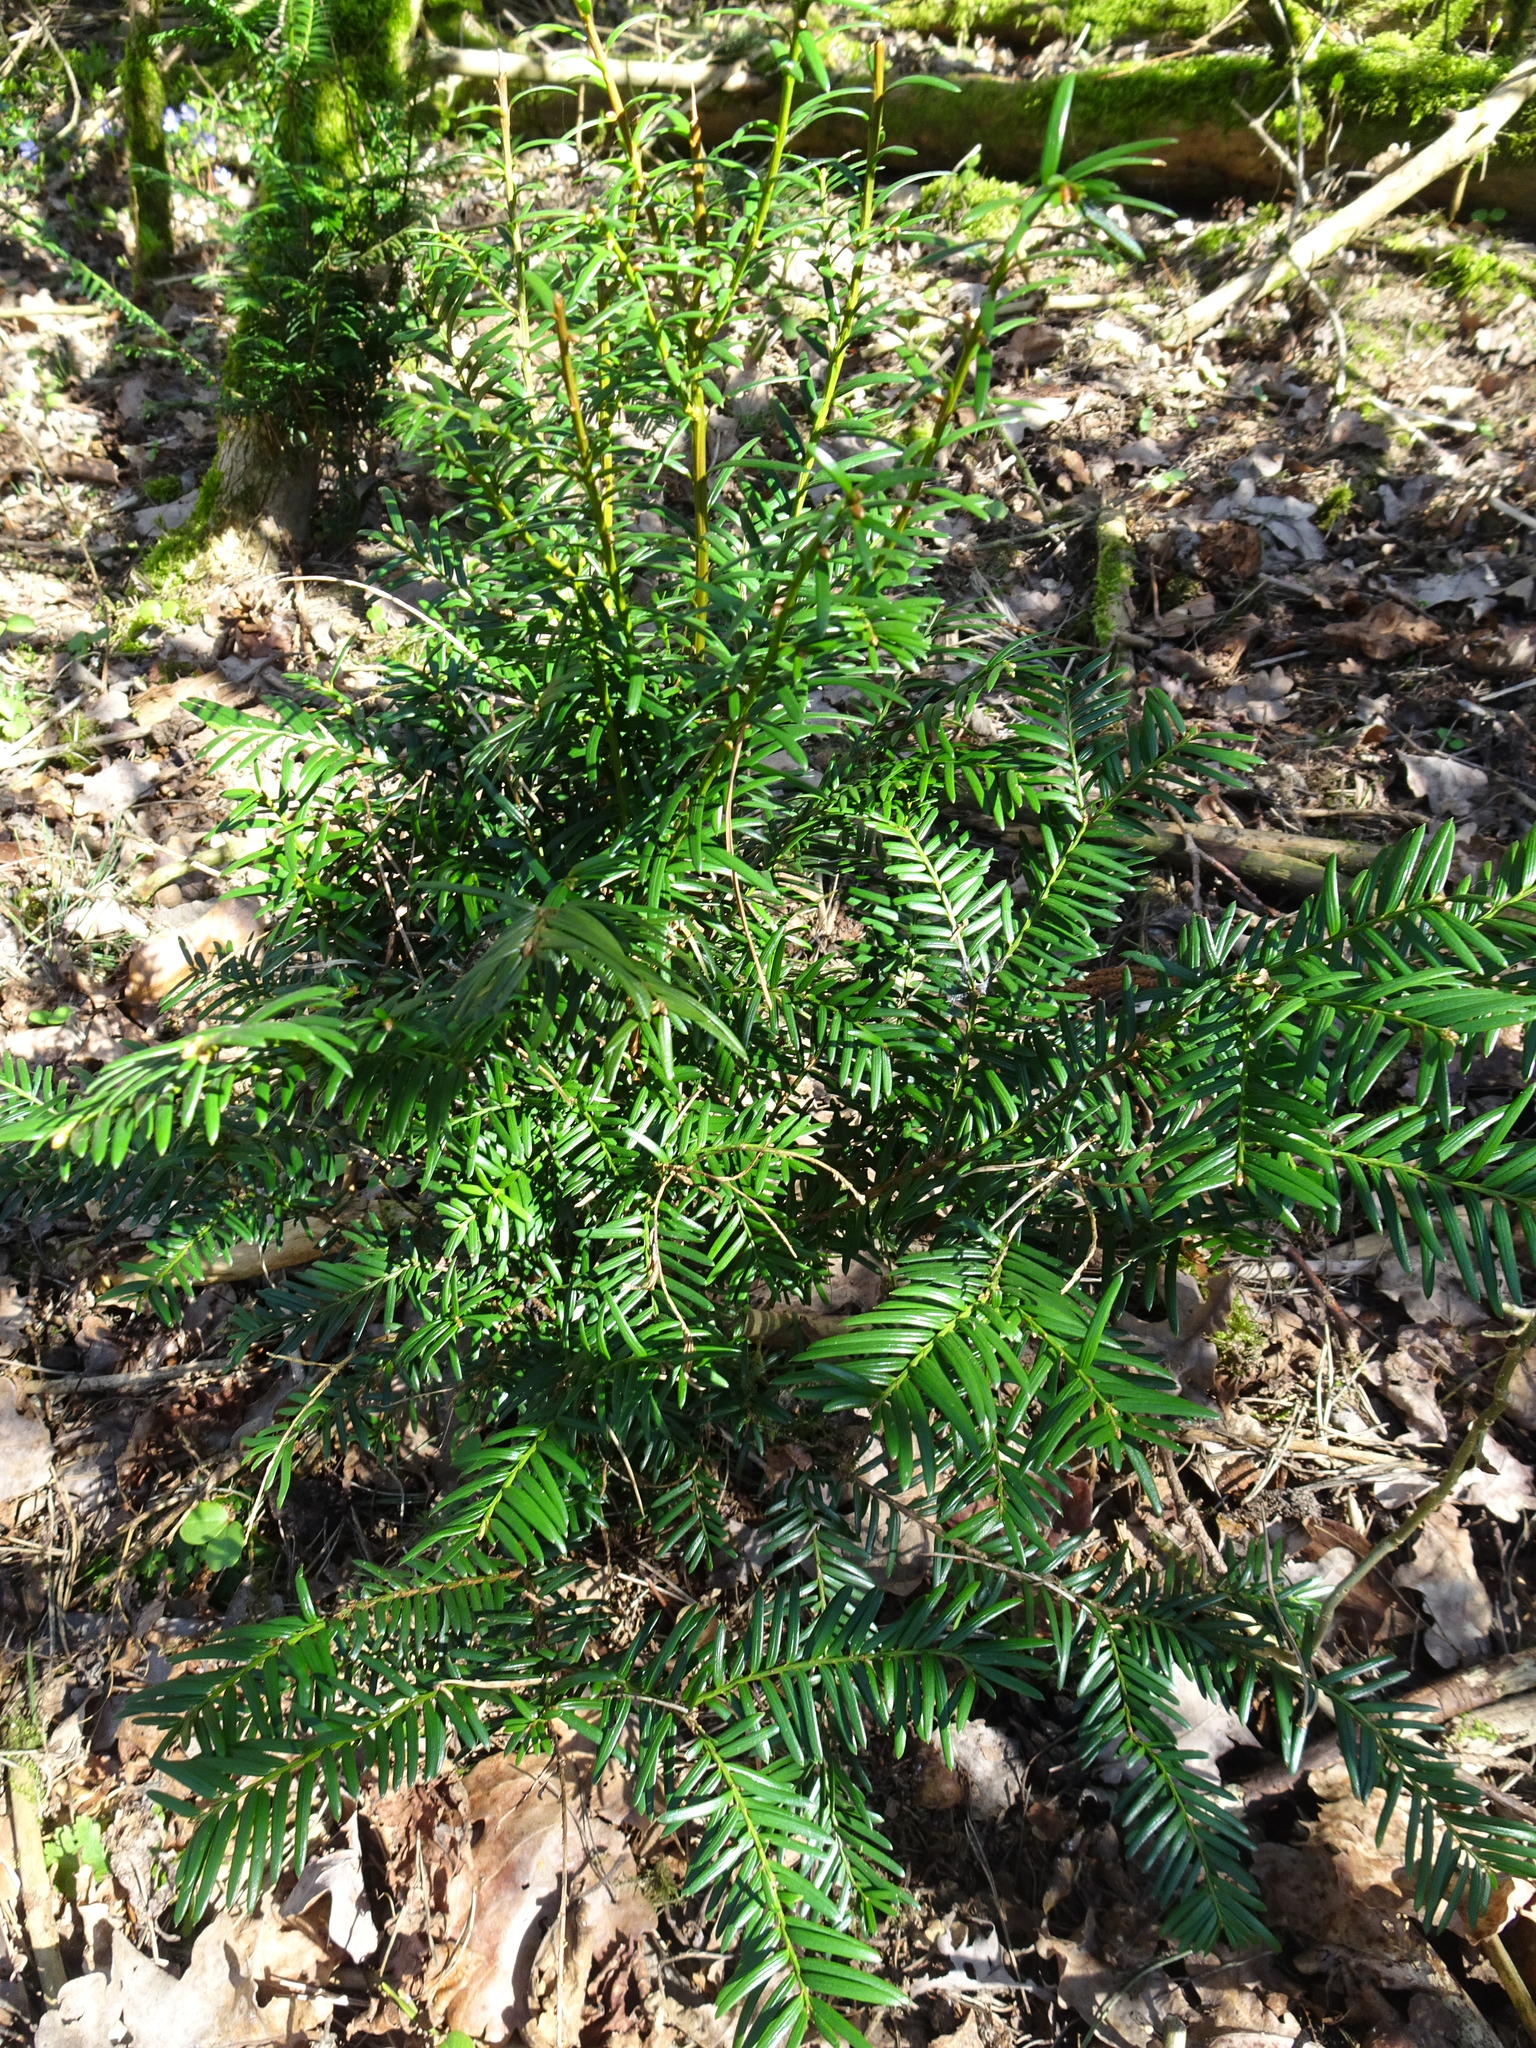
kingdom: Plantae
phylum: Tracheophyta
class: Pinopsida
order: Pinales
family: Taxaceae
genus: Taxus
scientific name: Taxus baccata
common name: Yew
